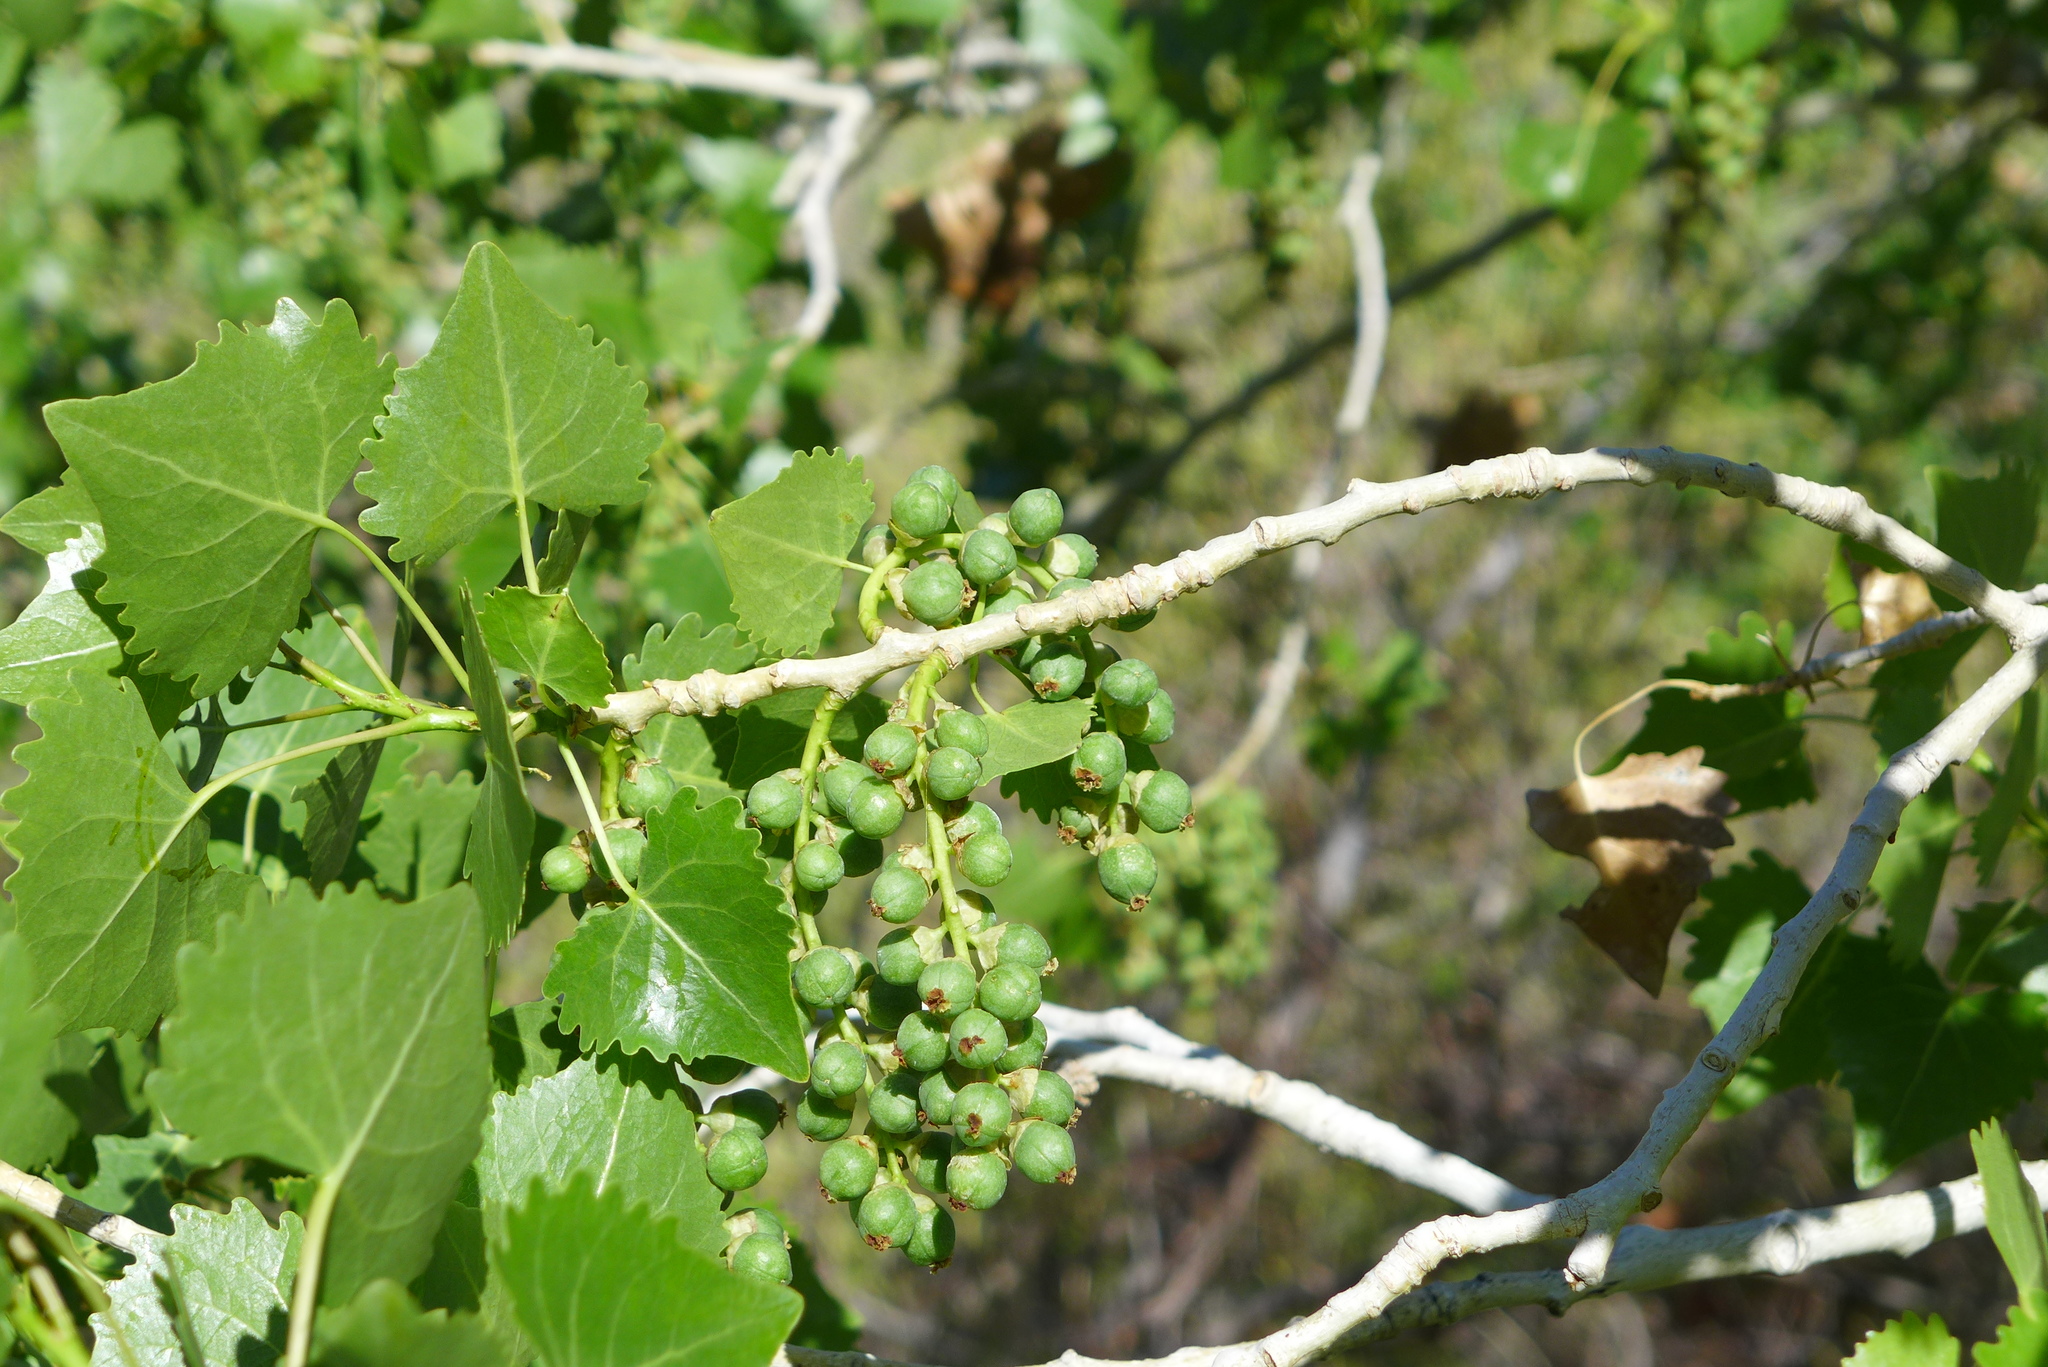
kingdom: Plantae
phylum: Tracheophyta
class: Magnoliopsida
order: Malpighiales
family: Salicaceae
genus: Populus
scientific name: Populus fremontii
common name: Fremont's cottonwood
